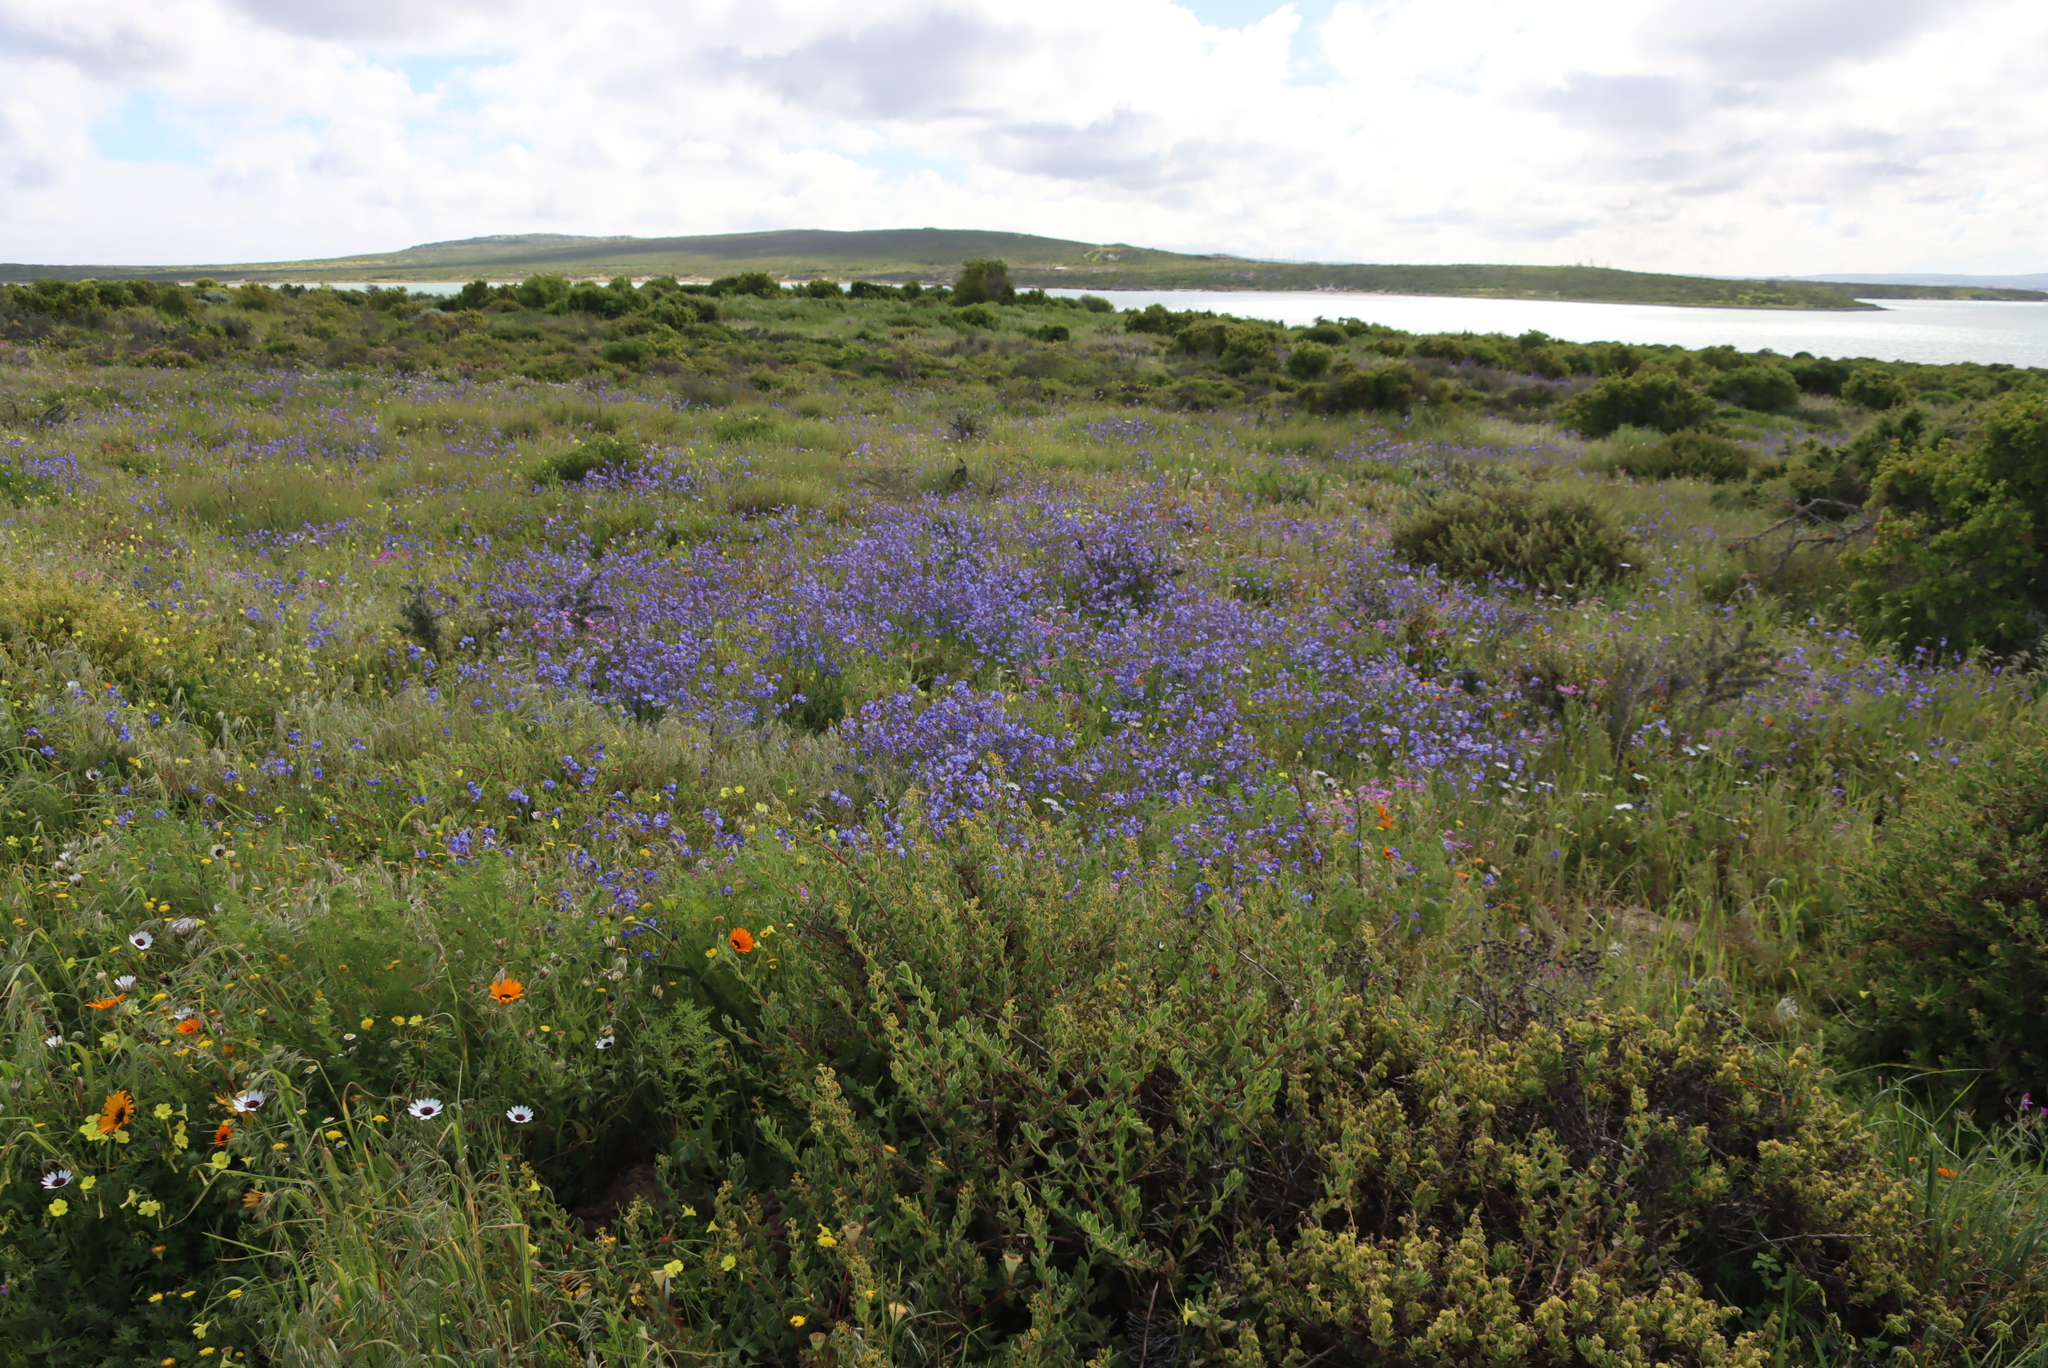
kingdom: Plantae
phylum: Tracheophyta
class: Magnoliopsida
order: Brassicales
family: Brassicaceae
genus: Heliophila
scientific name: Heliophila coronopifolia
